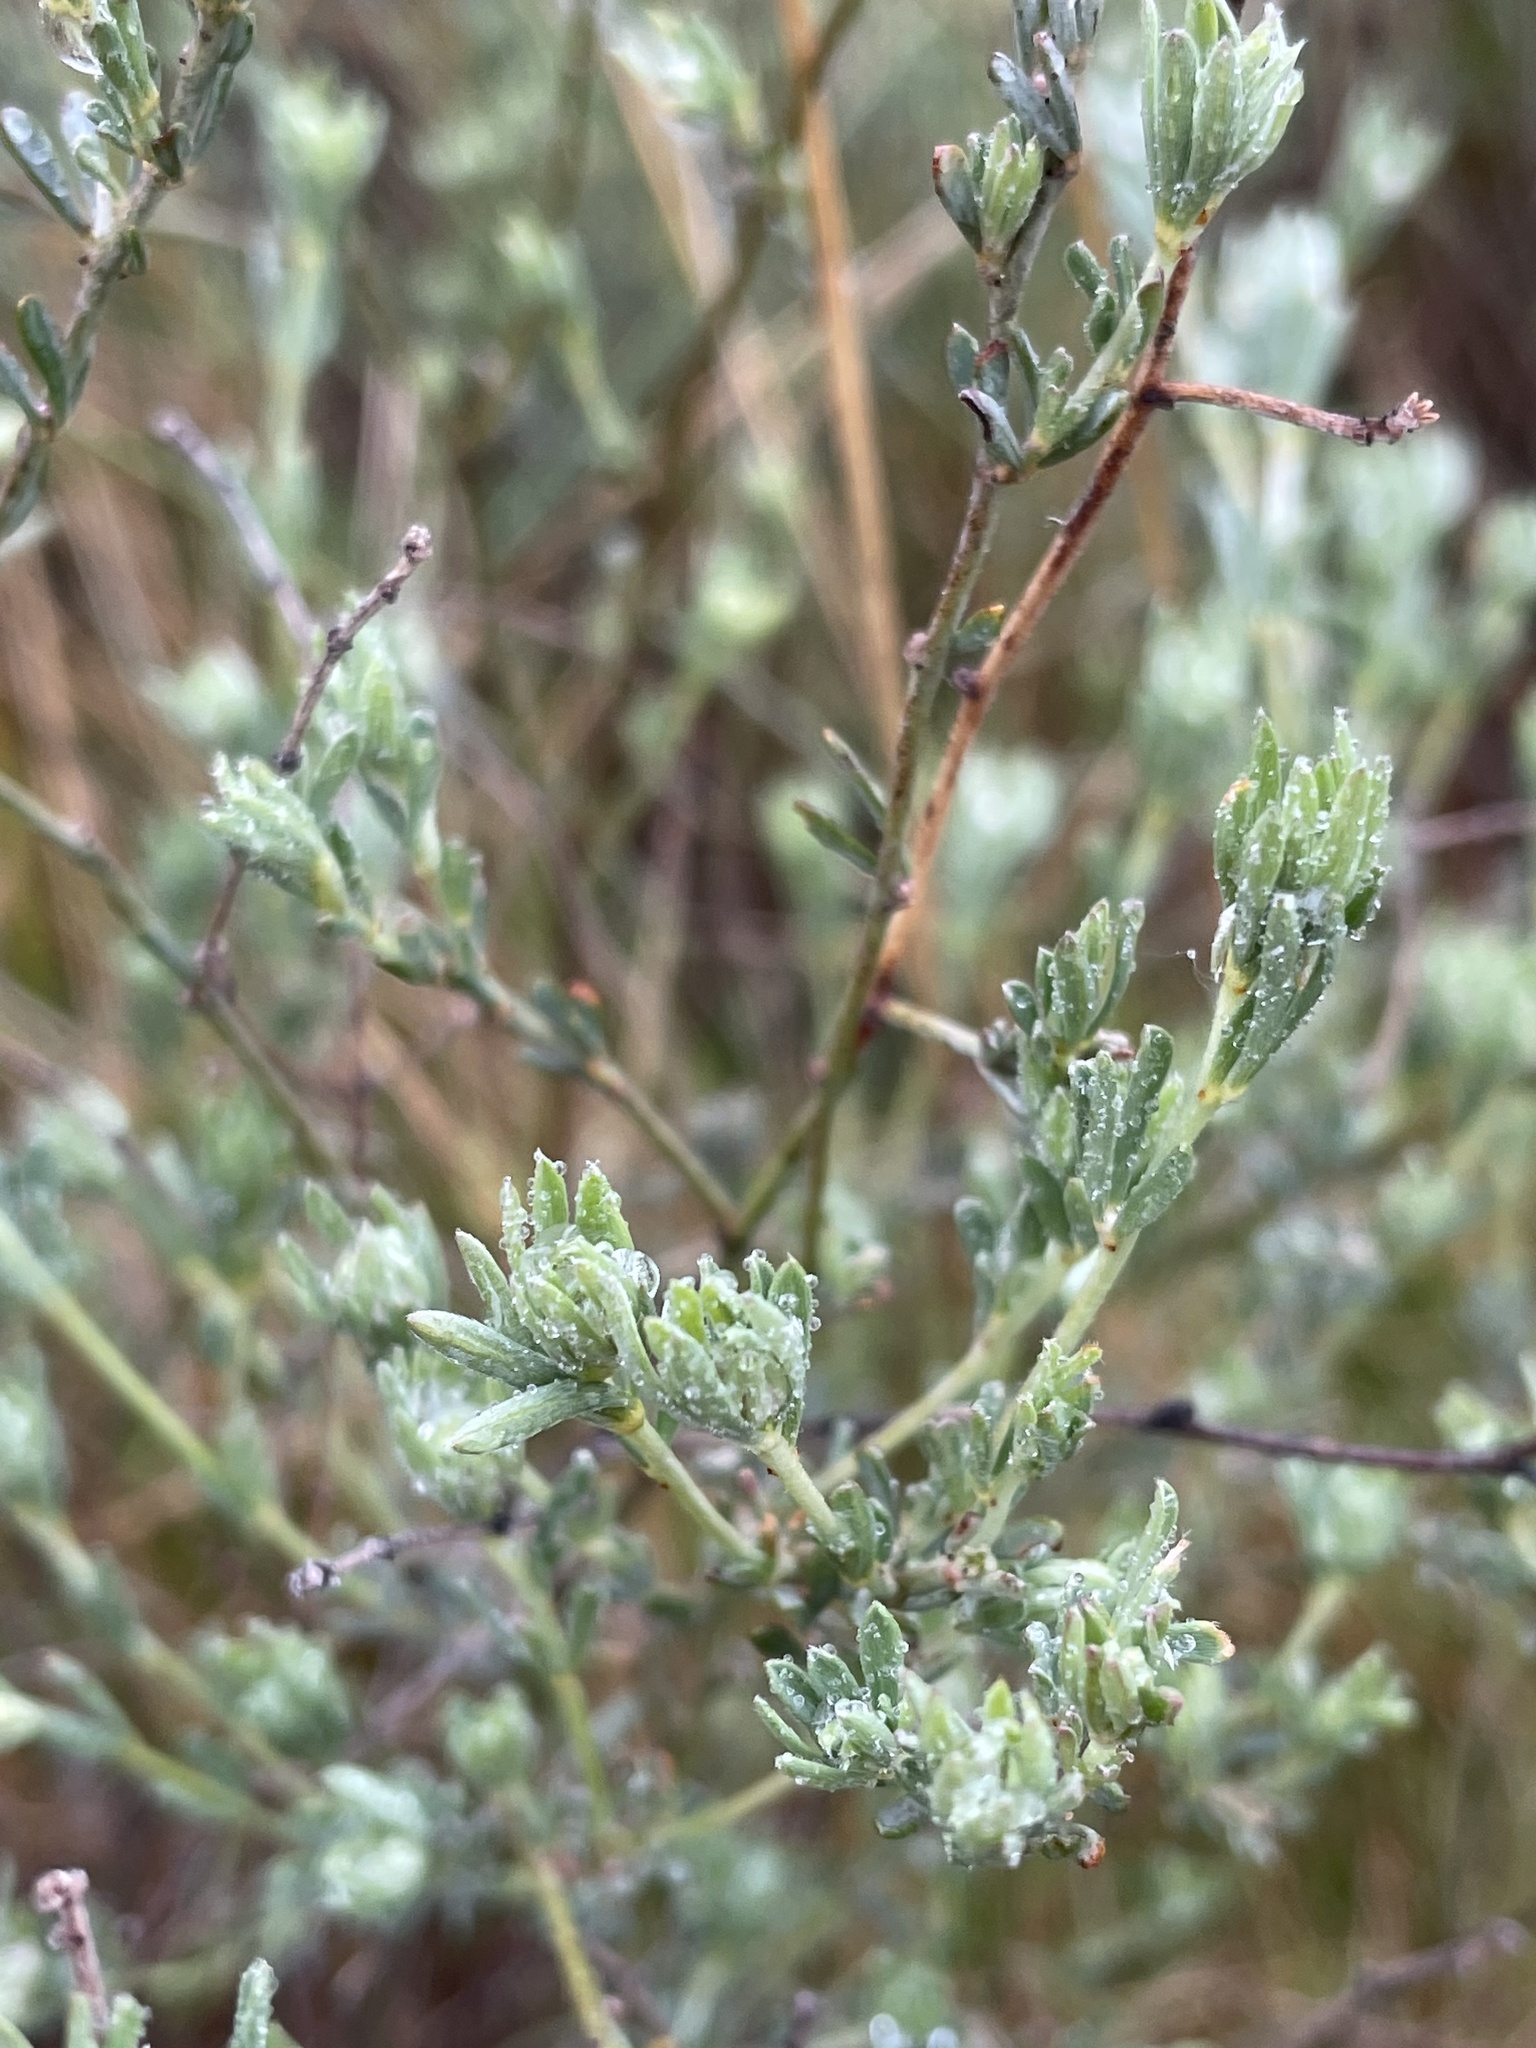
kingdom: Plantae
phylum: Tracheophyta
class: Magnoliopsida
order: Fabales
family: Fabaceae
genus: Lotus
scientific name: Lotus dorycnium
